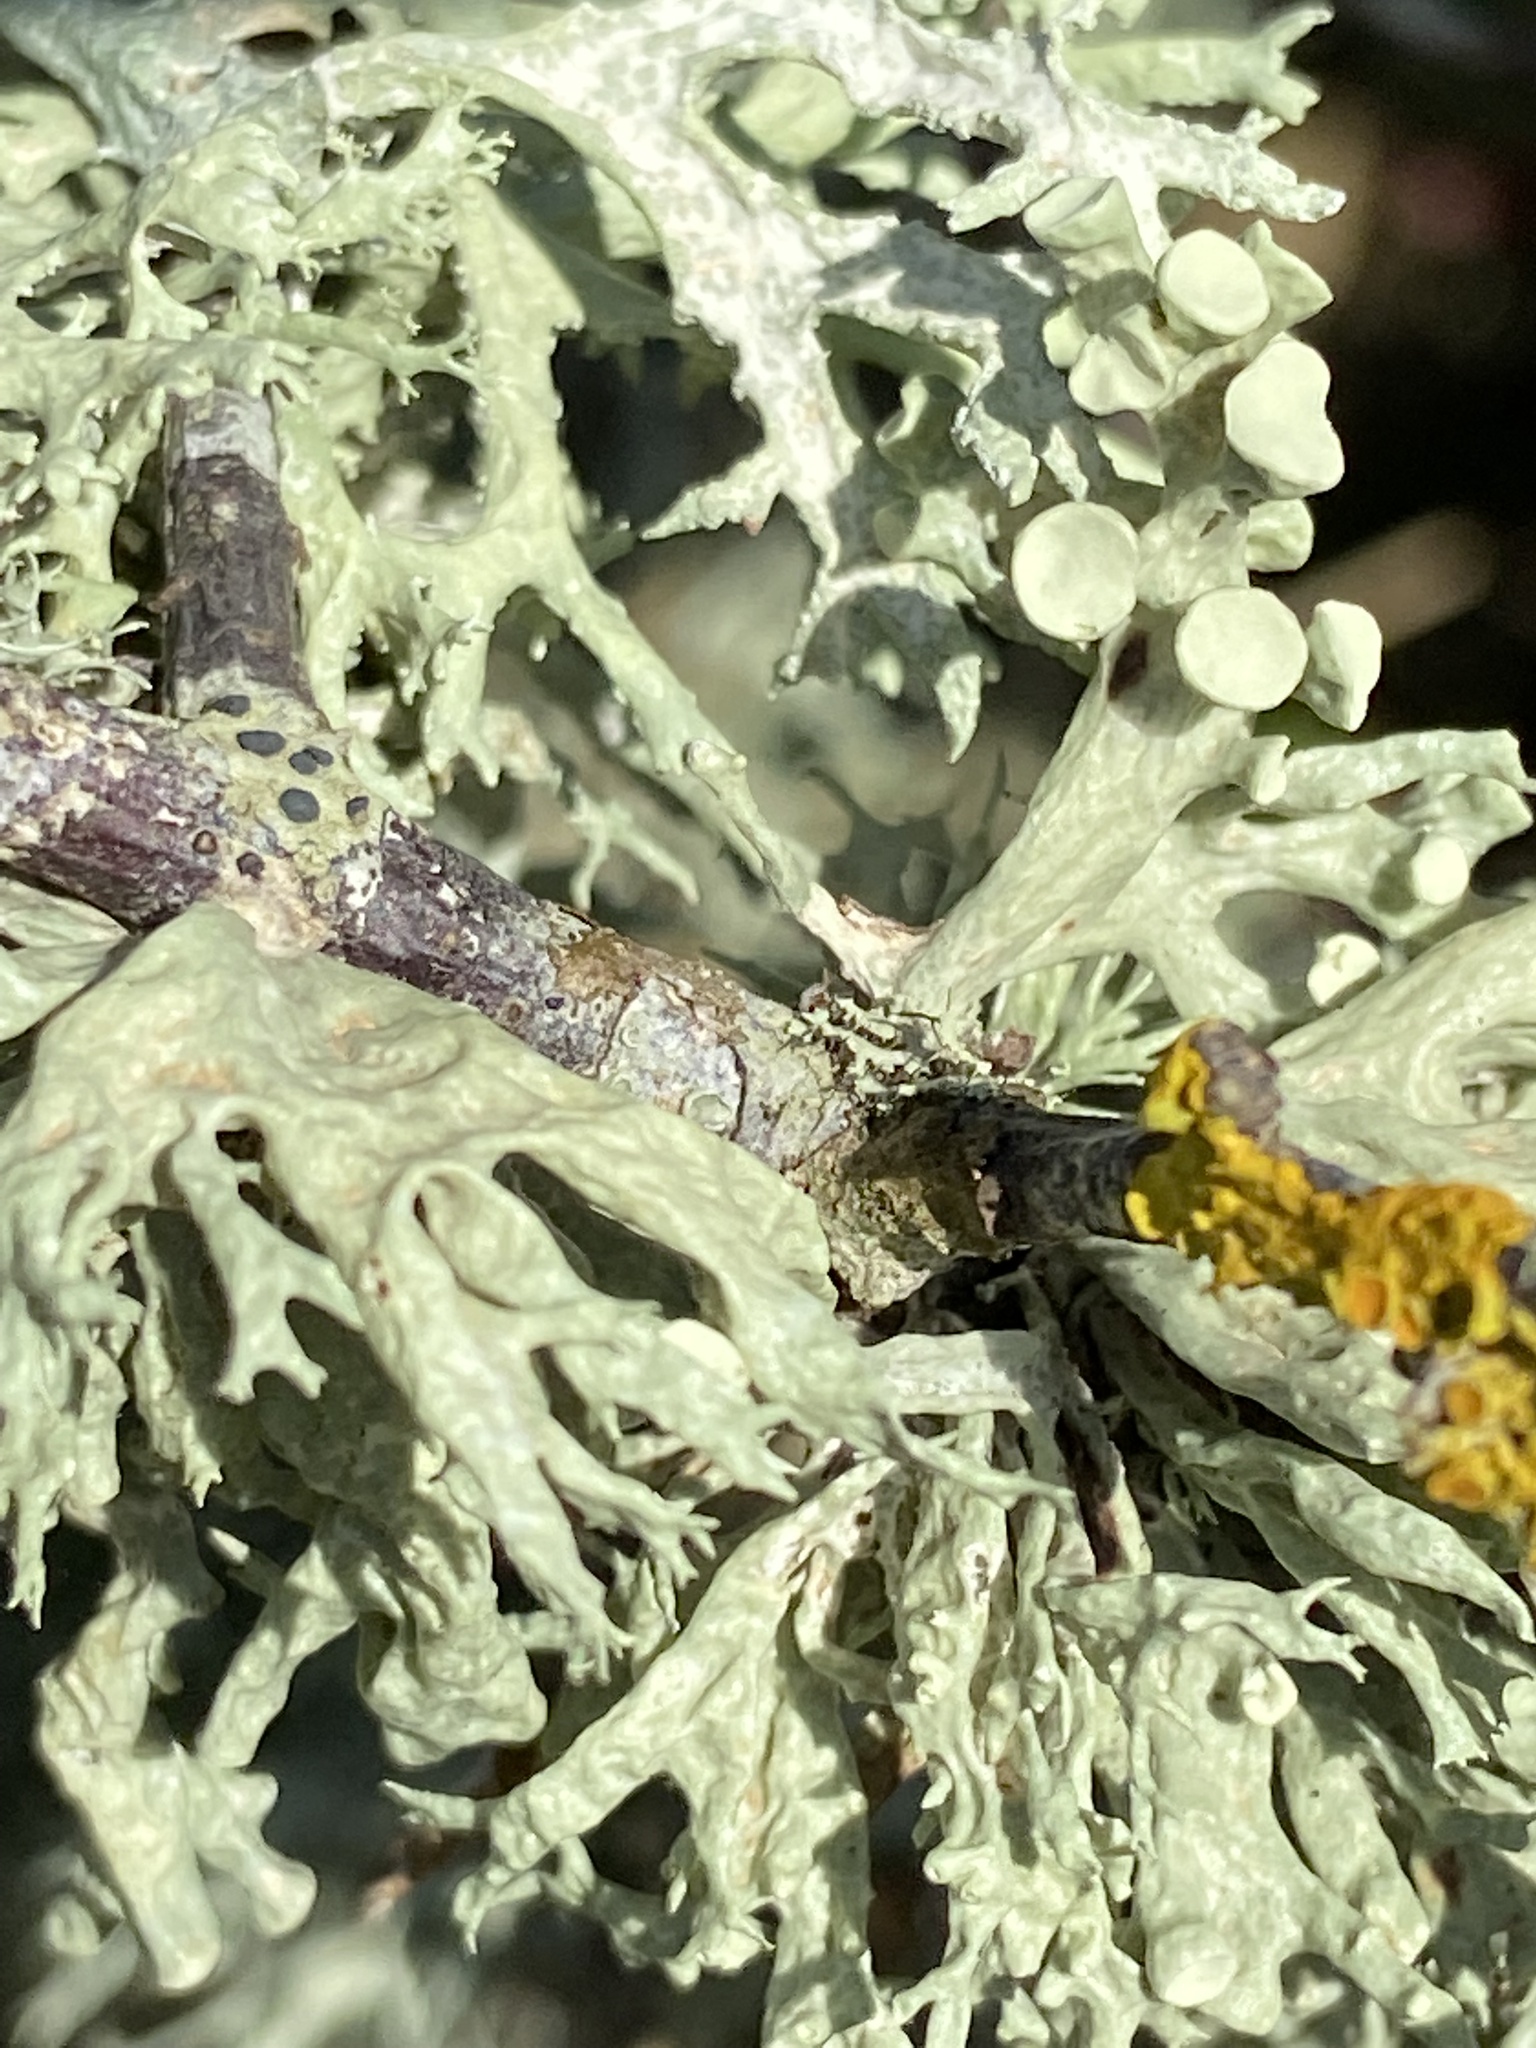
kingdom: Fungi
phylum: Ascomycota
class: Lecanoromycetes
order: Lecanorales
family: Ramalinaceae
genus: Ramalina
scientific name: Ramalina fastigiata
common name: Dotted ribbon lichen
